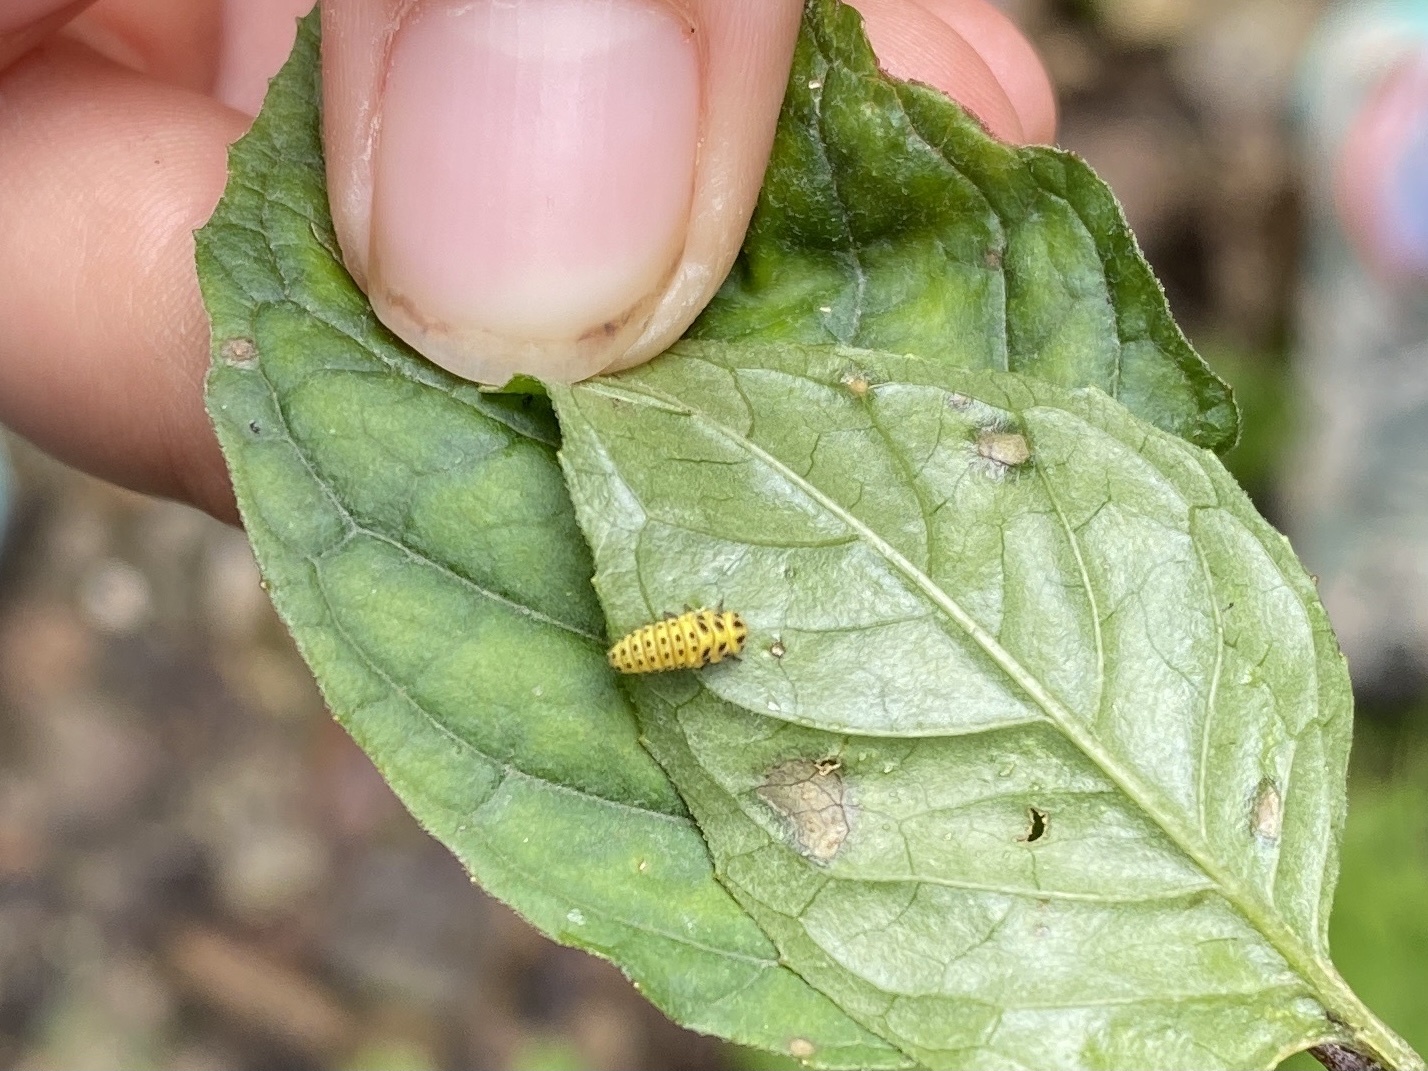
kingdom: Animalia
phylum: Arthropoda
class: Insecta
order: Coleoptera
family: Coccinellidae
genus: Psyllobora
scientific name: Psyllobora vigintiduopunctata
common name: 22-spot ladybird
